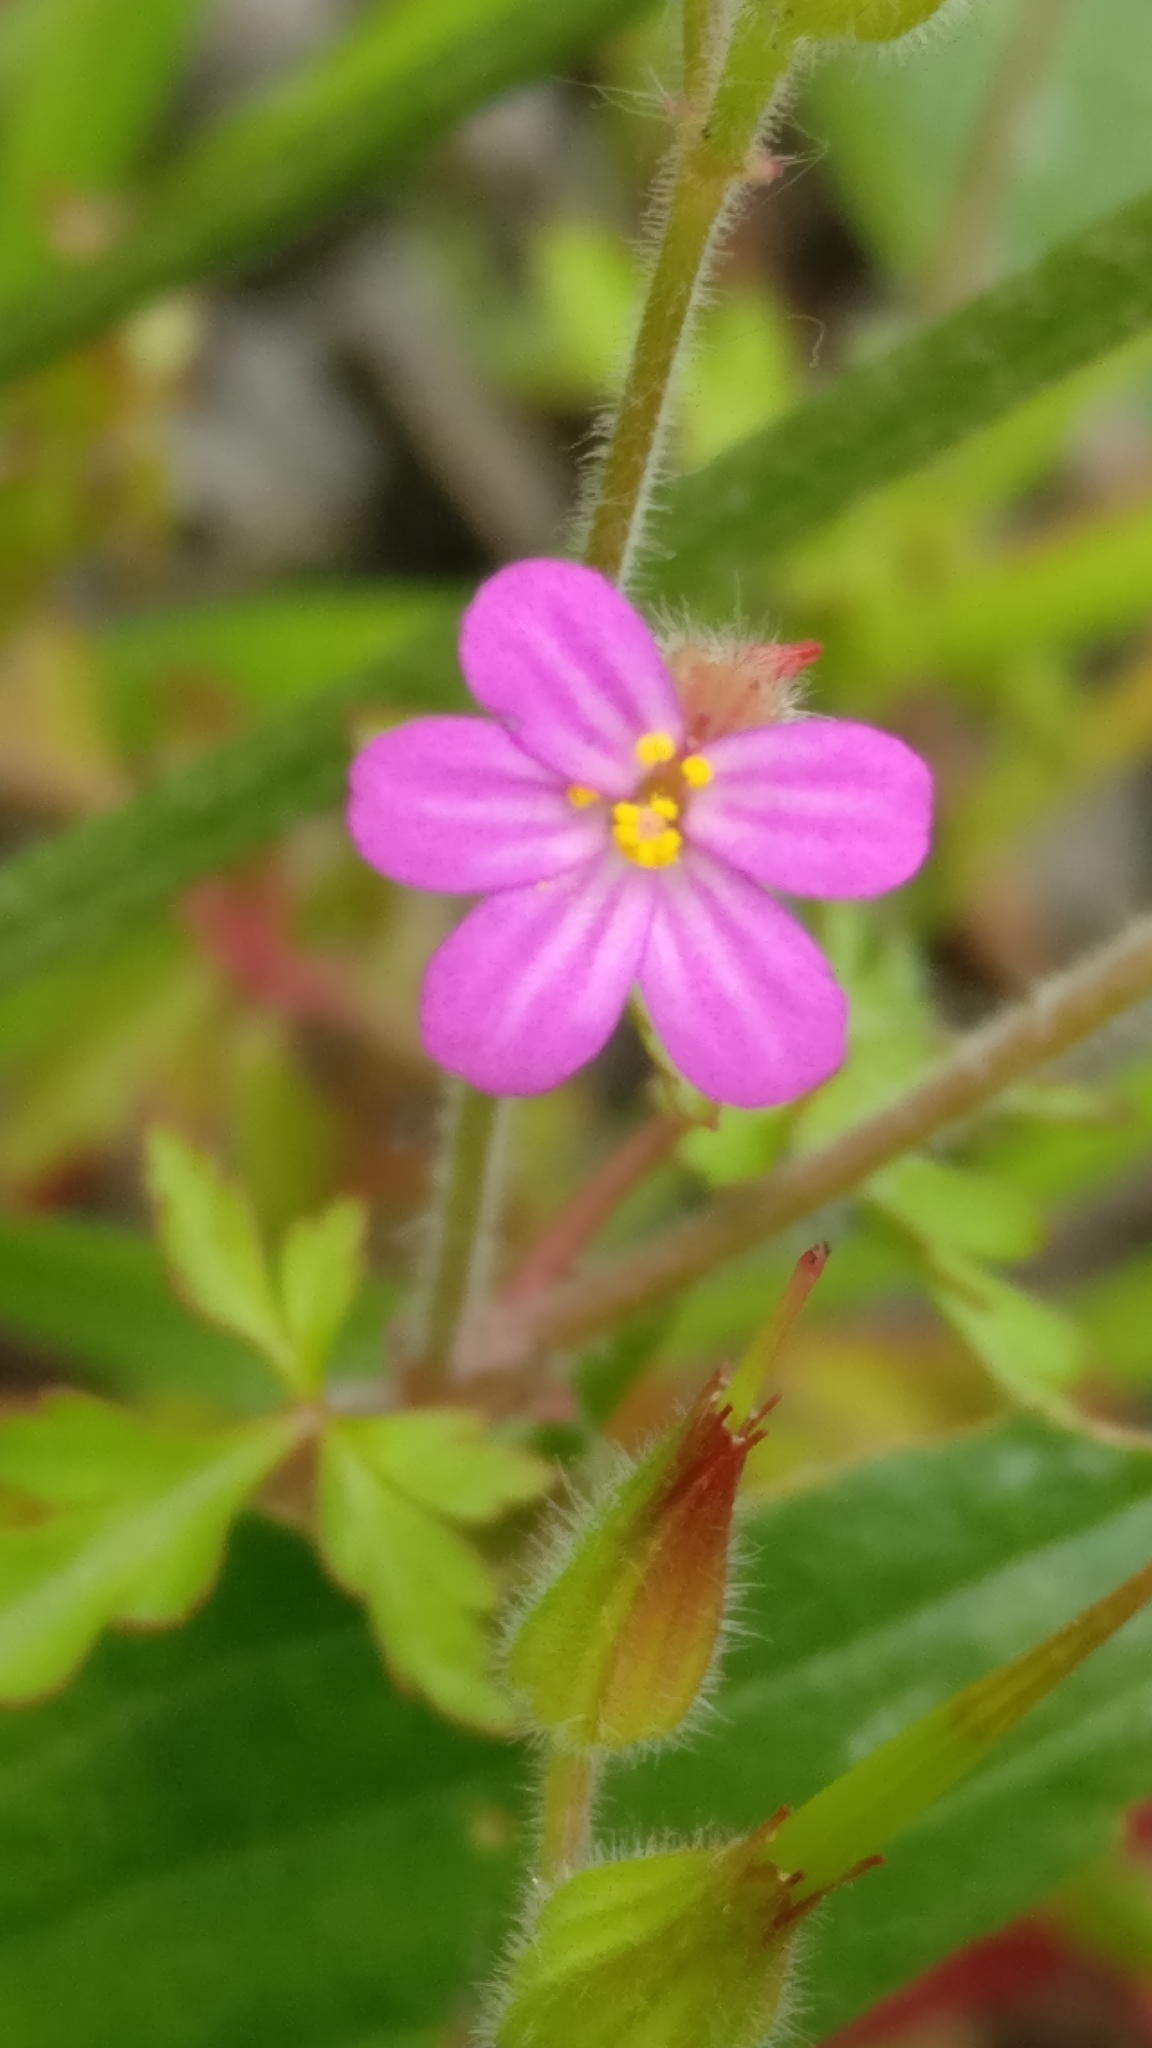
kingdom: Plantae
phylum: Tracheophyta
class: Magnoliopsida
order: Geraniales
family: Geraniaceae
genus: Geranium
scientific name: Geranium purpureum
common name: Little-robin
